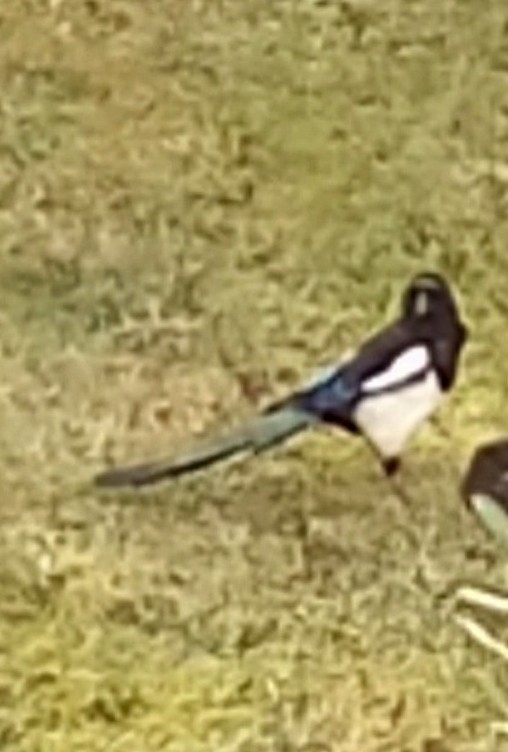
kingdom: Animalia
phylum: Chordata
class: Aves
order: Passeriformes
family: Corvidae
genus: Pica
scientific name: Pica pica
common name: Eurasian magpie
